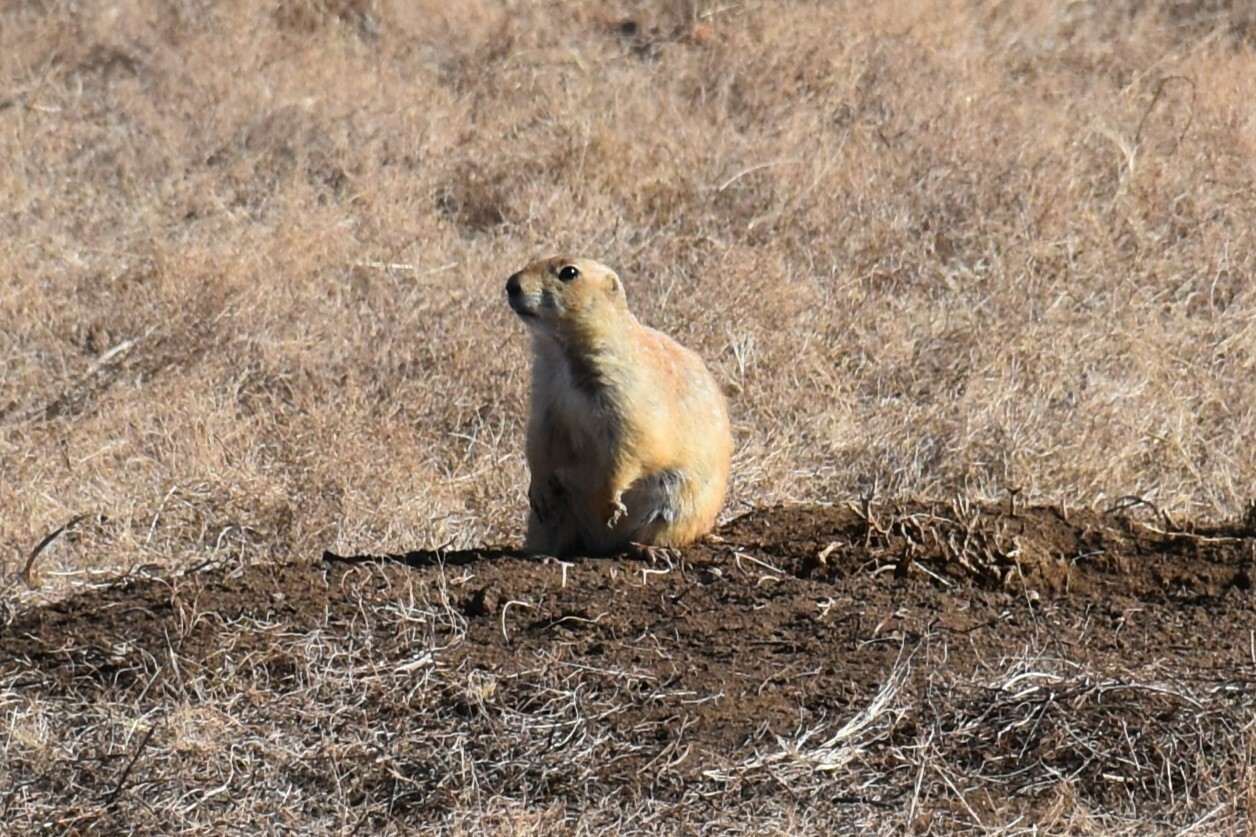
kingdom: Animalia
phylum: Chordata
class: Mammalia
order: Rodentia
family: Sciuridae
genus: Cynomys
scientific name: Cynomys ludovicianus
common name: Black-tailed prairie dog
